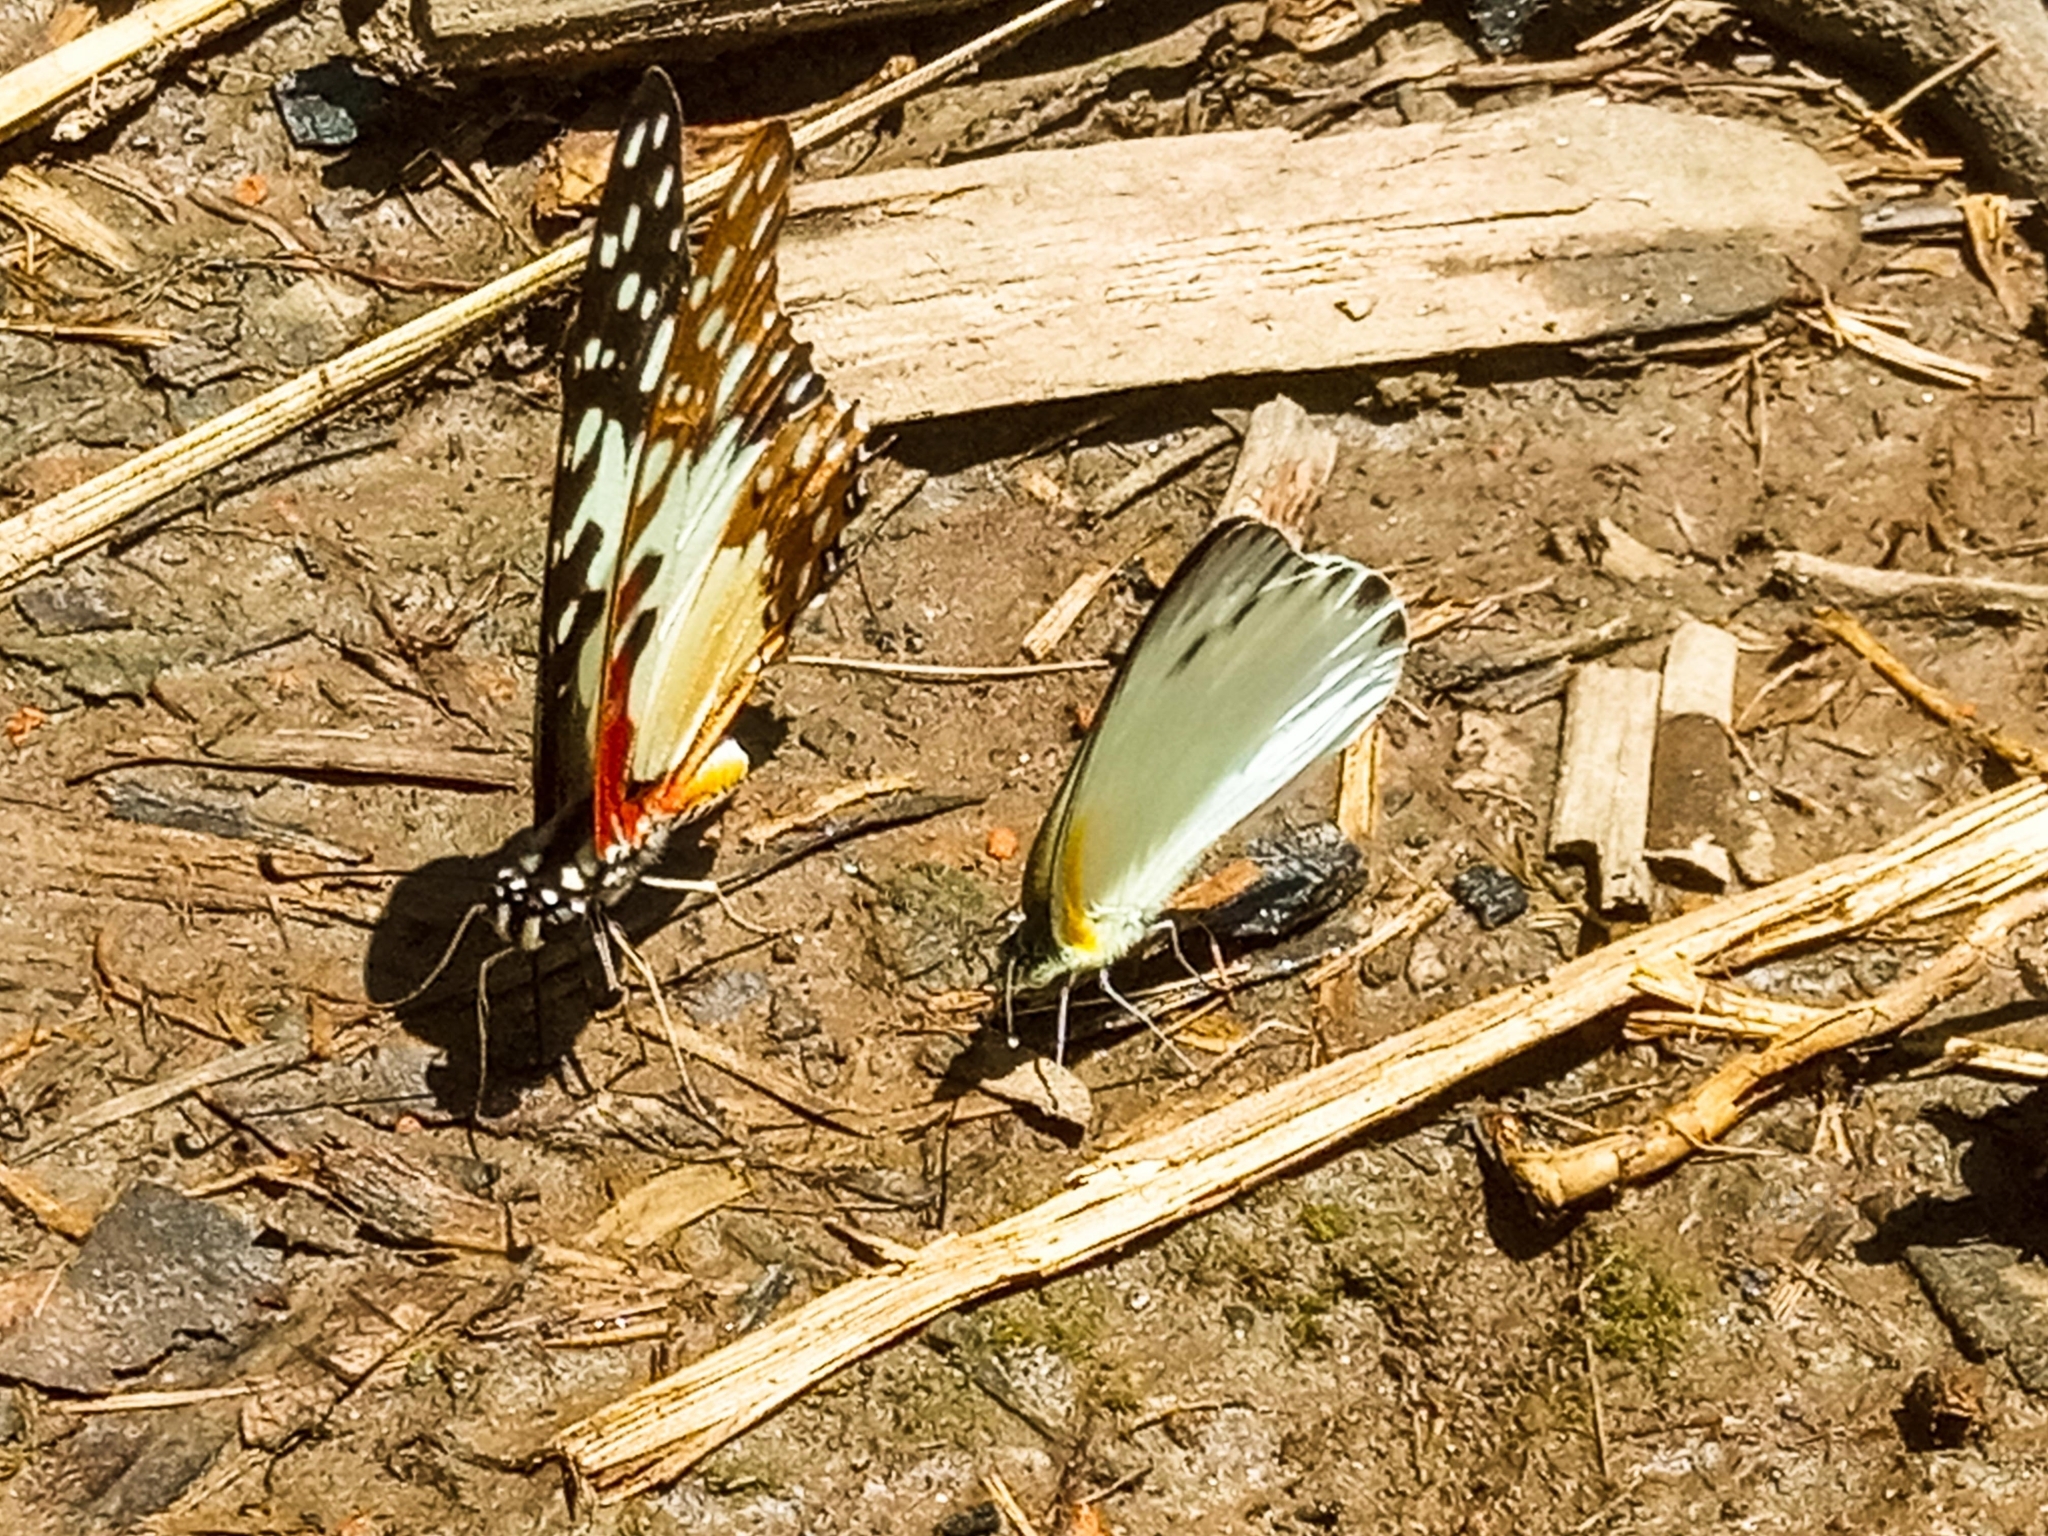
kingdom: Animalia
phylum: Arthropoda
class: Insecta
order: Lepidoptera
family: Papilionidae
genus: Graphium
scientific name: Graphium angolanus
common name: Angola white-lady swordtail
